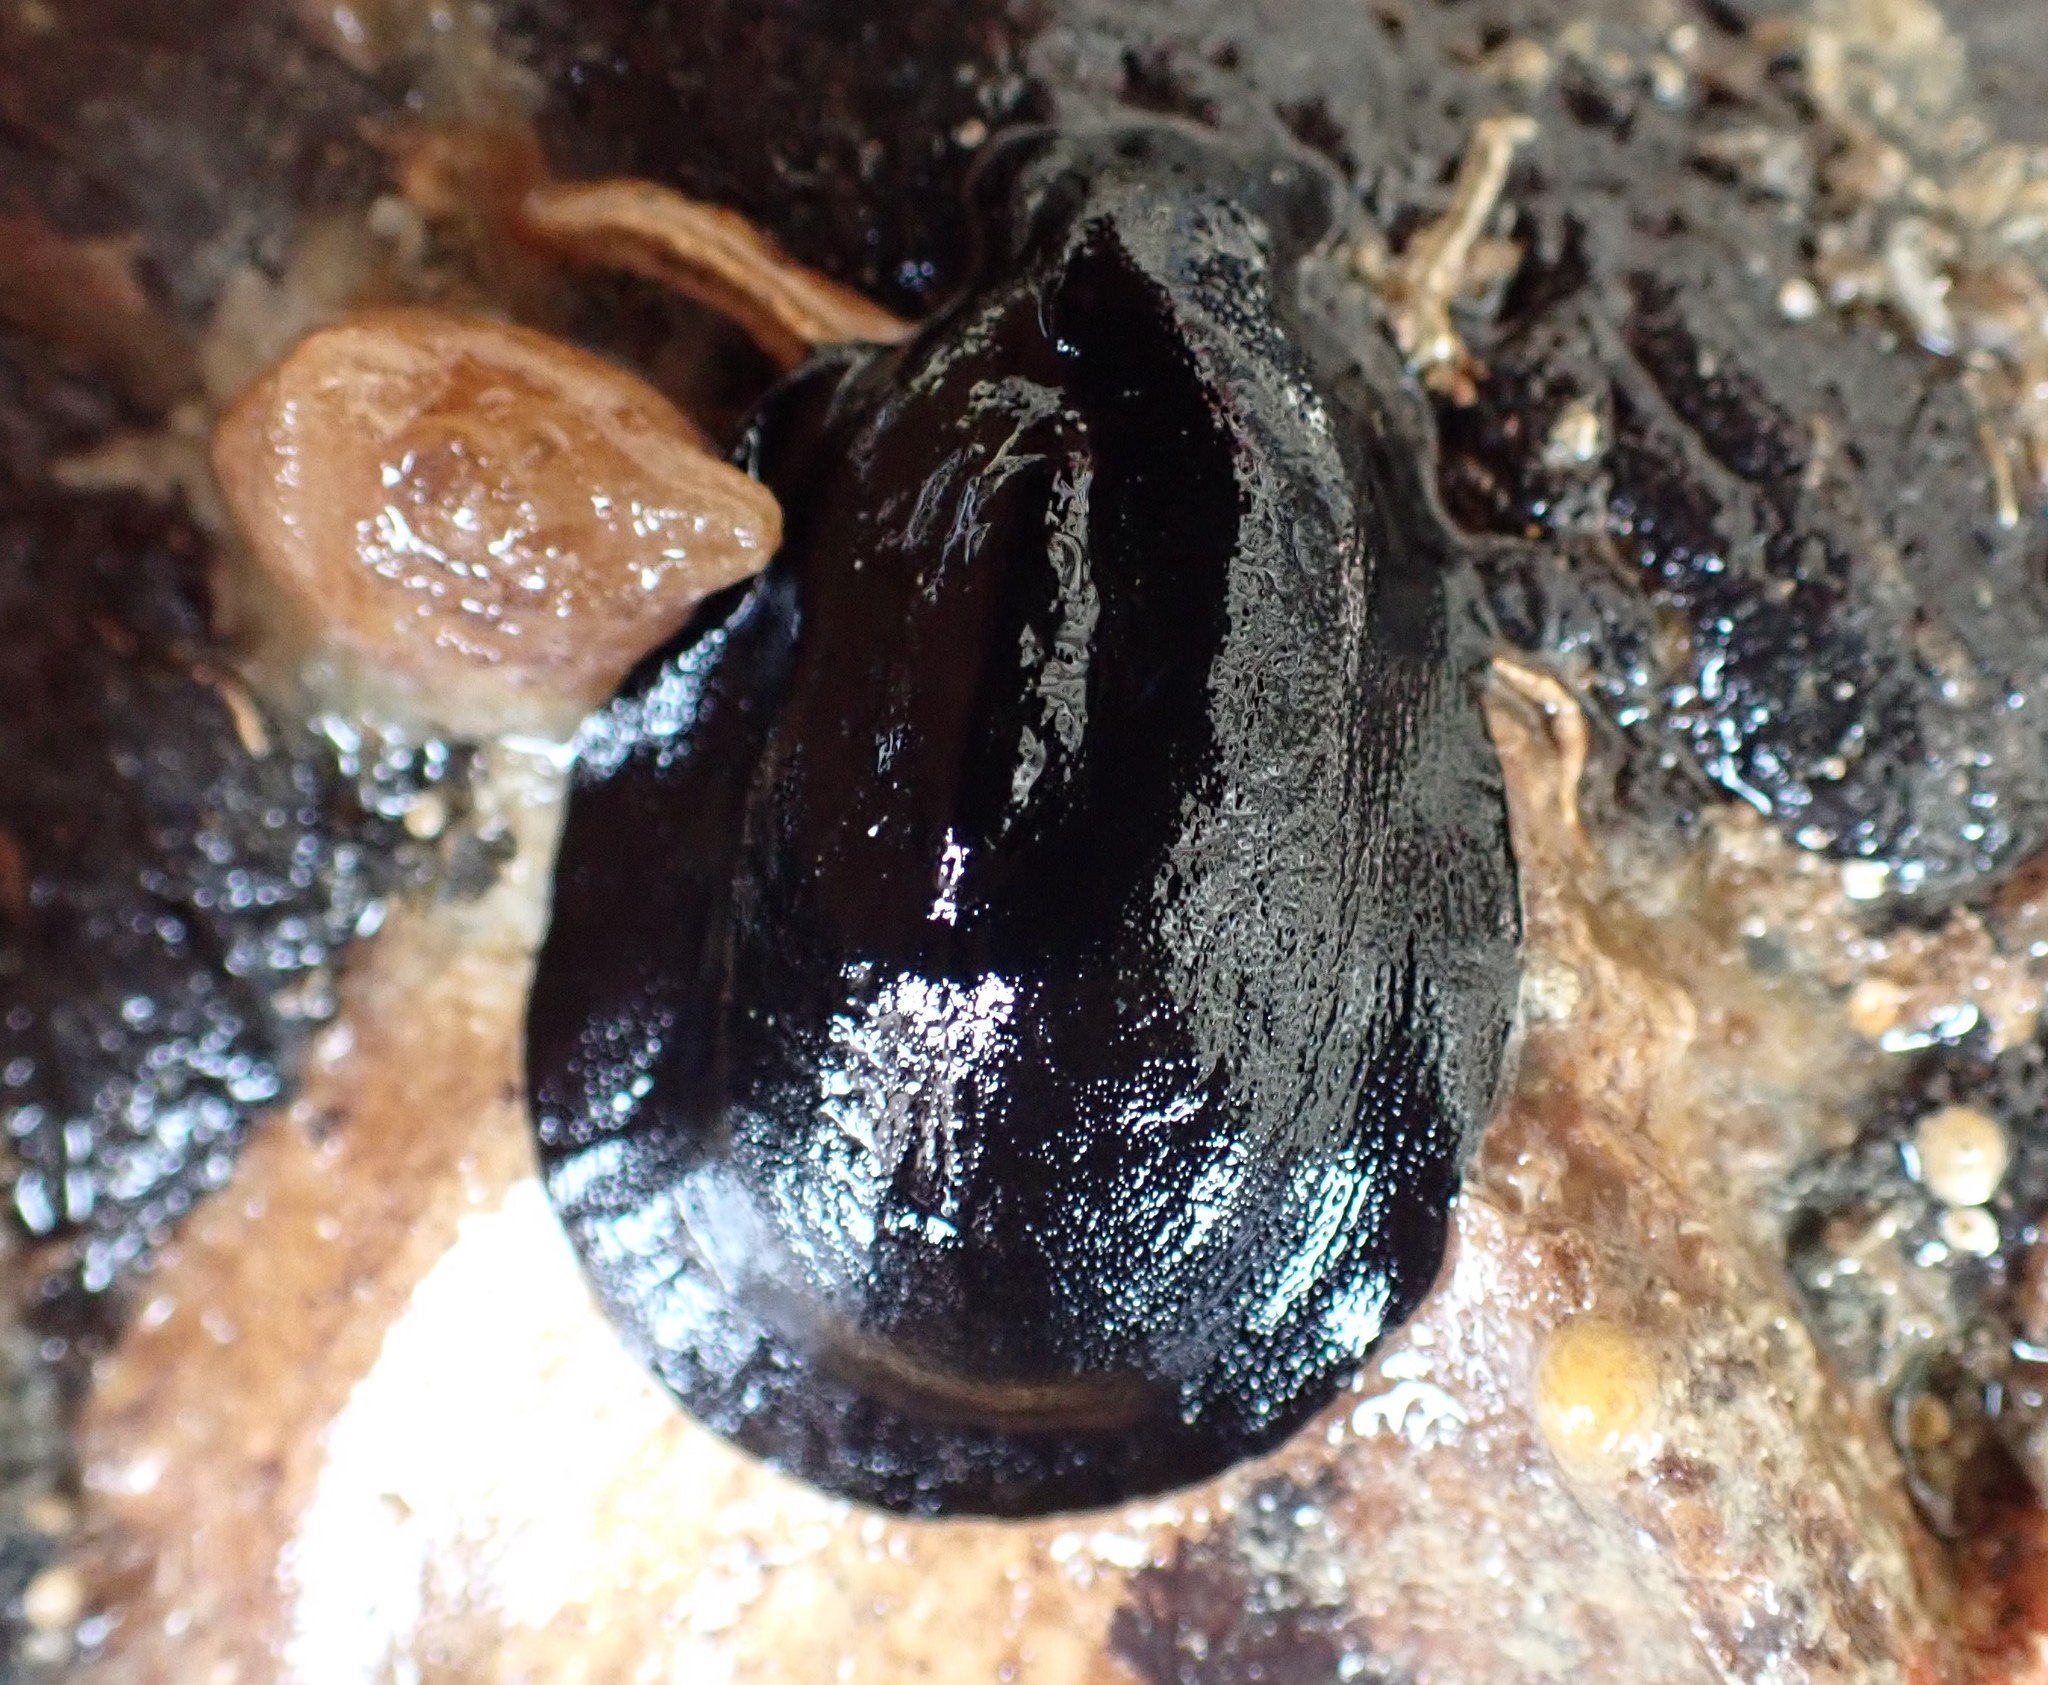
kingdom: Animalia
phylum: Mollusca
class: Gastropoda
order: Lepetellida
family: Fissurellidae
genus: Scutus
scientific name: Scutus breviculus
